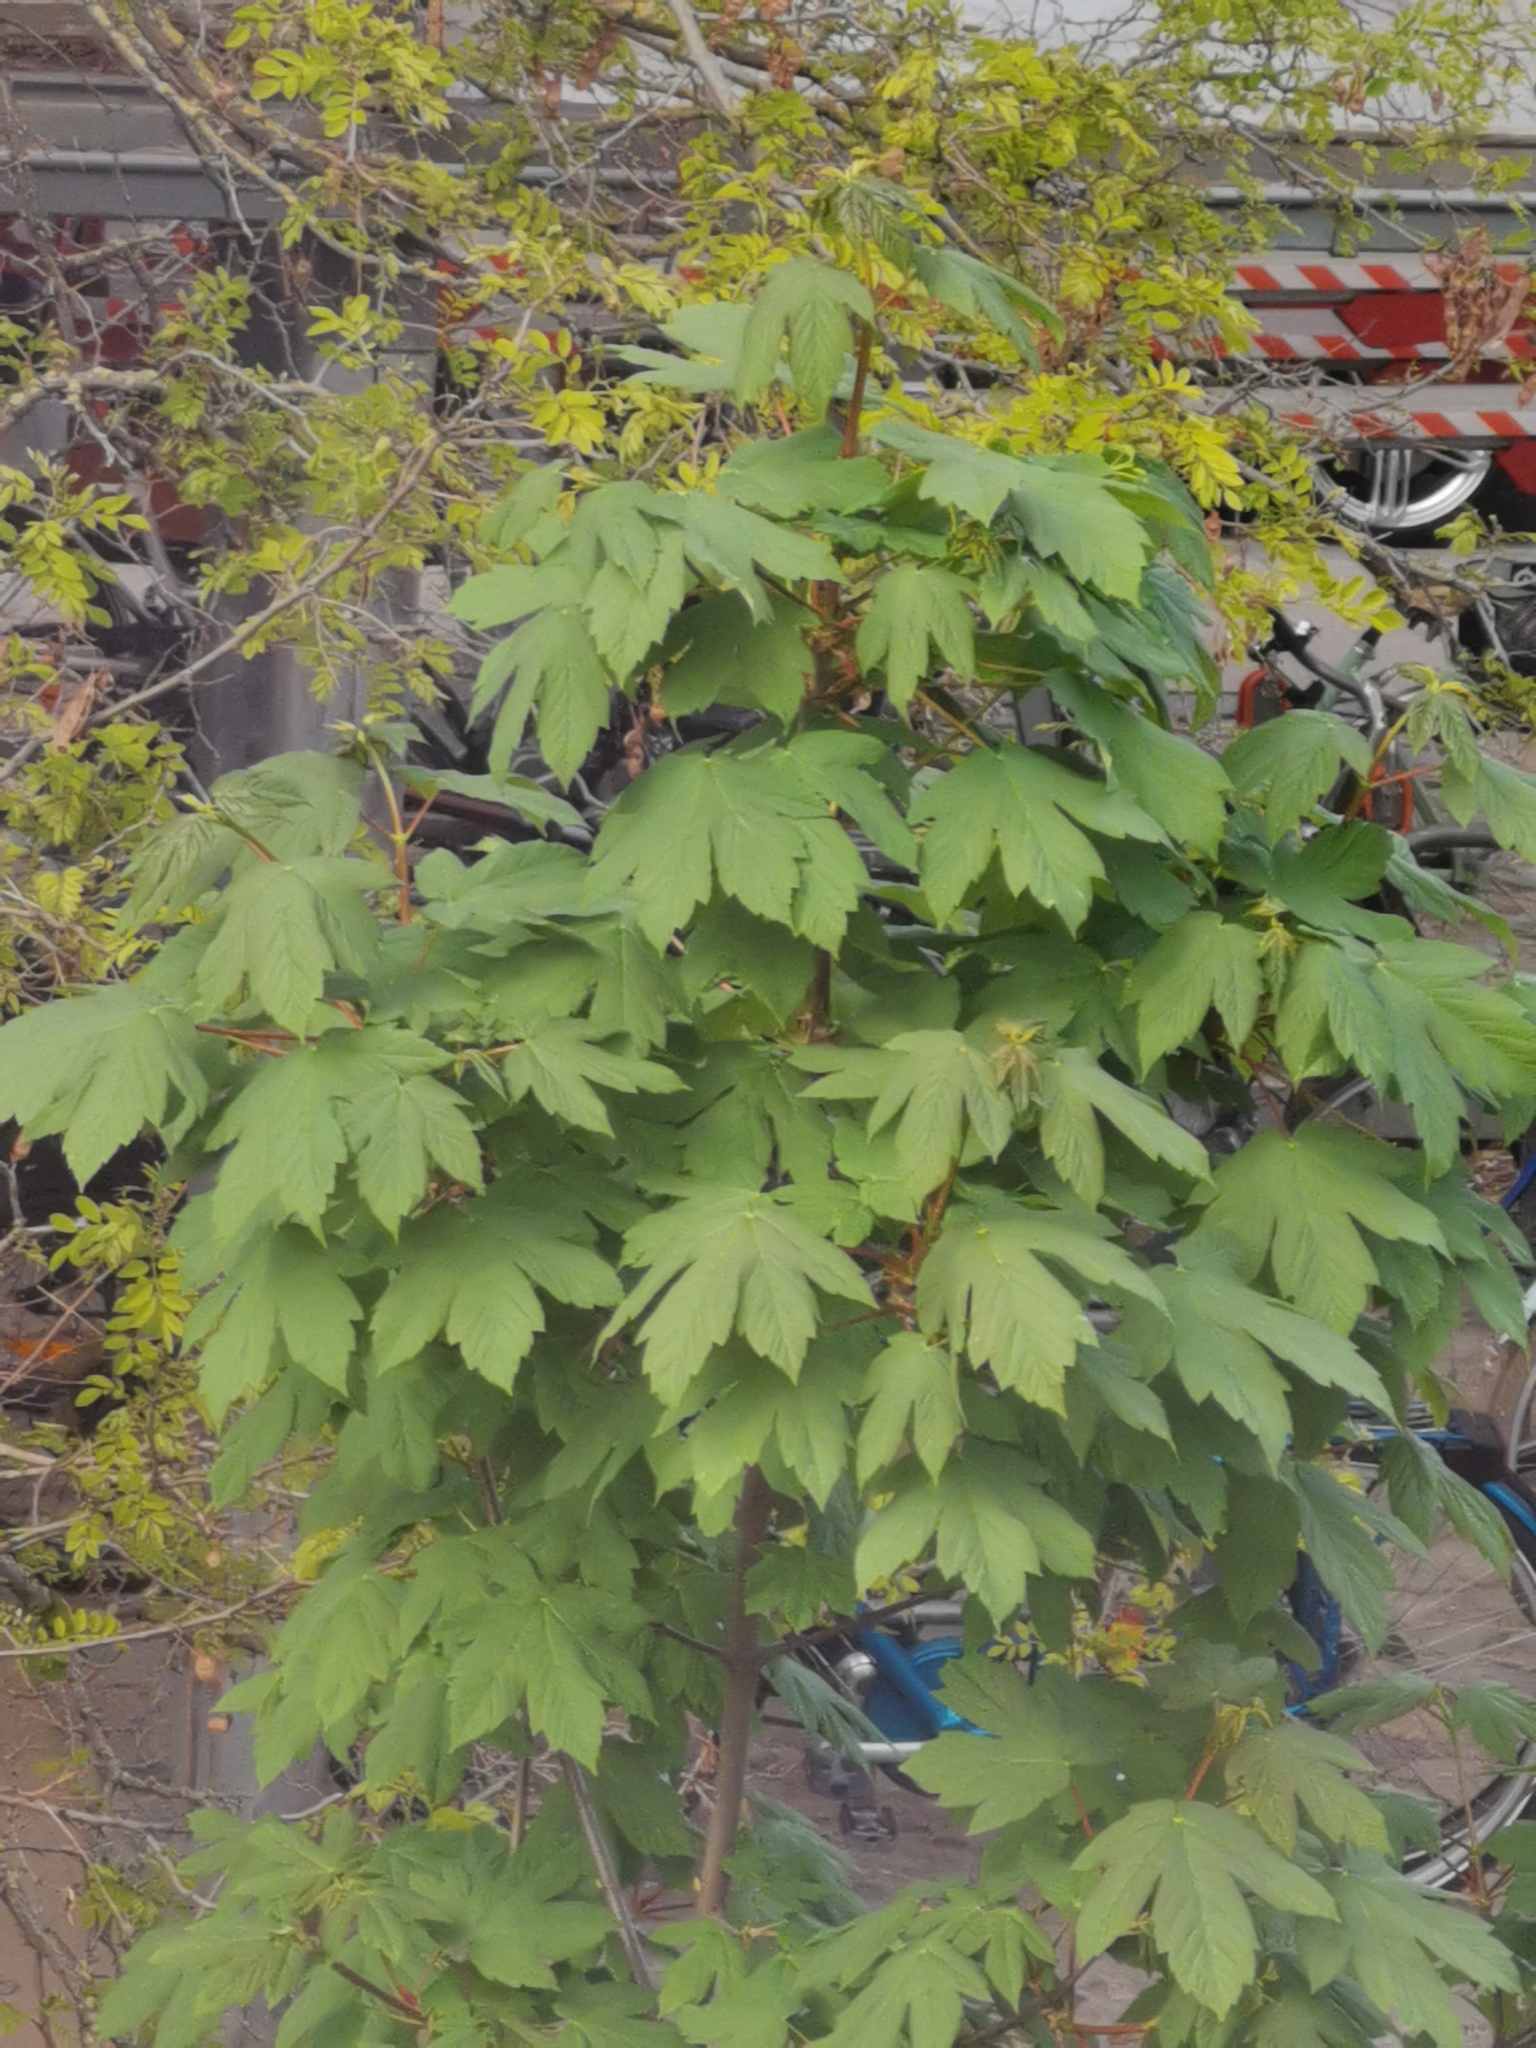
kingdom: Plantae
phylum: Tracheophyta
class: Magnoliopsida
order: Sapindales
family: Sapindaceae
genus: Acer
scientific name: Acer pseudoplatanus
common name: Sycamore
